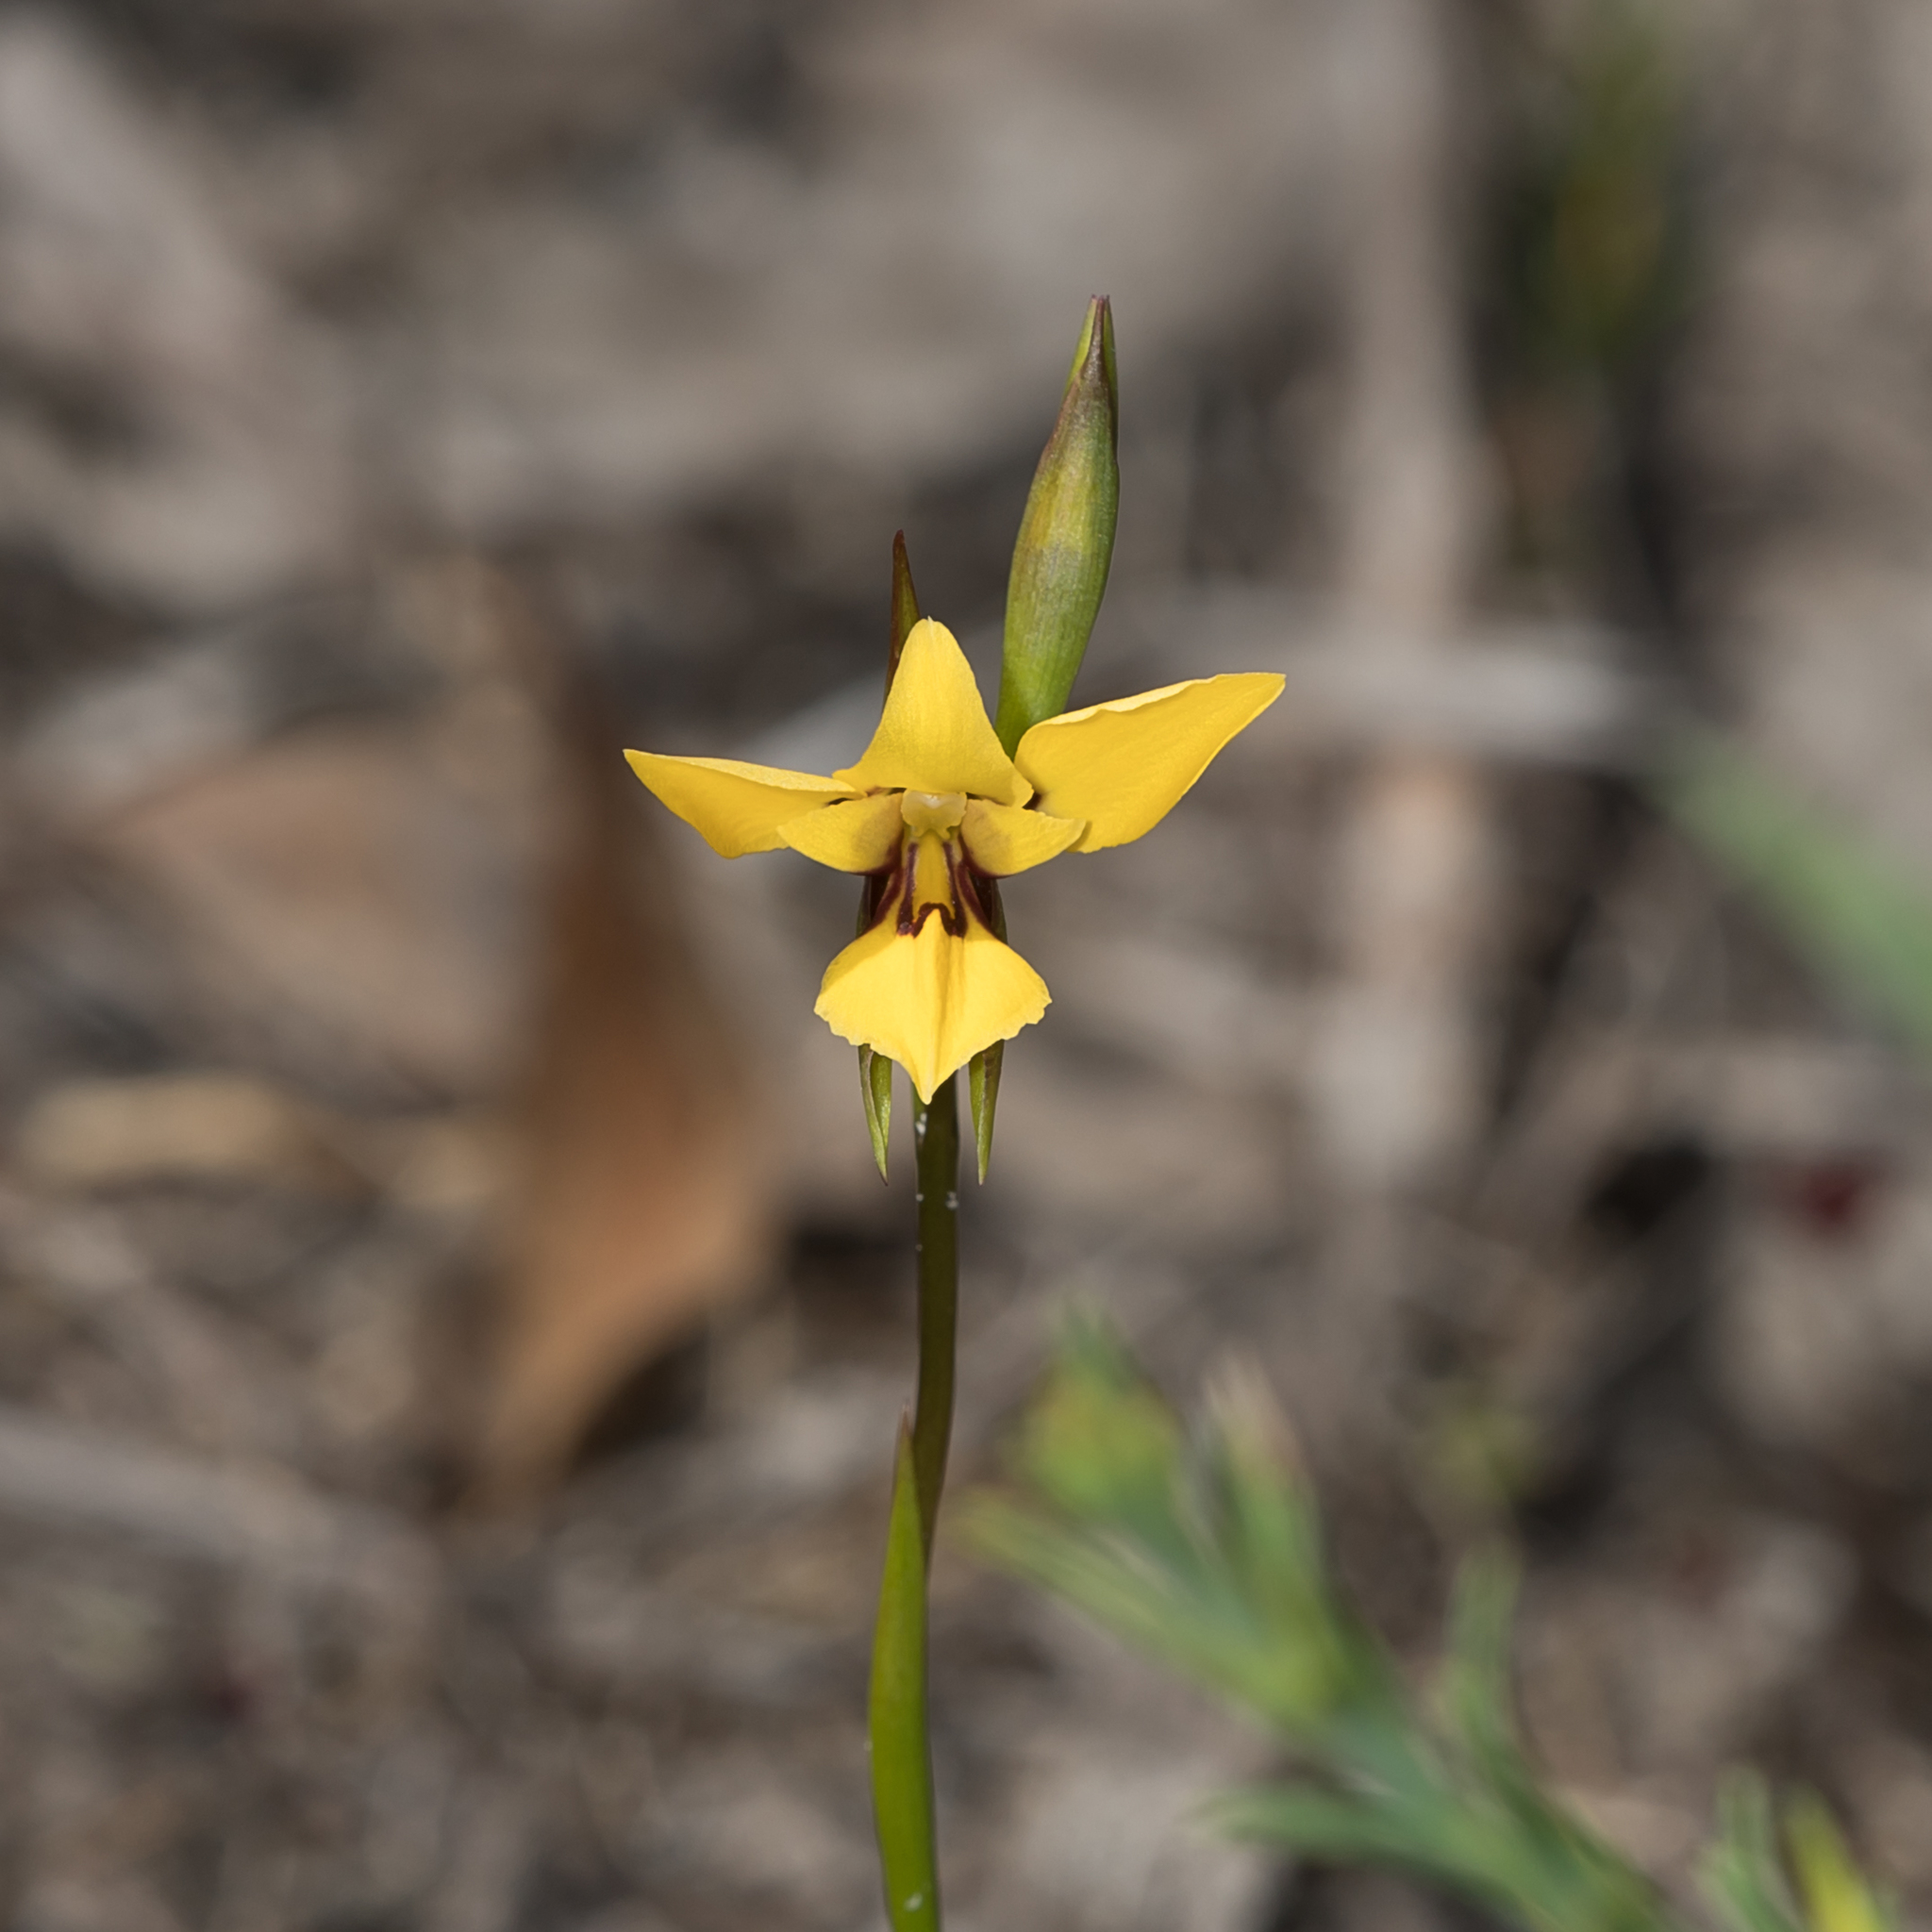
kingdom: Plantae
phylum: Tracheophyta
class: Liliopsida
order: Asparagales
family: Orchidaceae
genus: Diuris
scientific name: Diuris brevifolia
